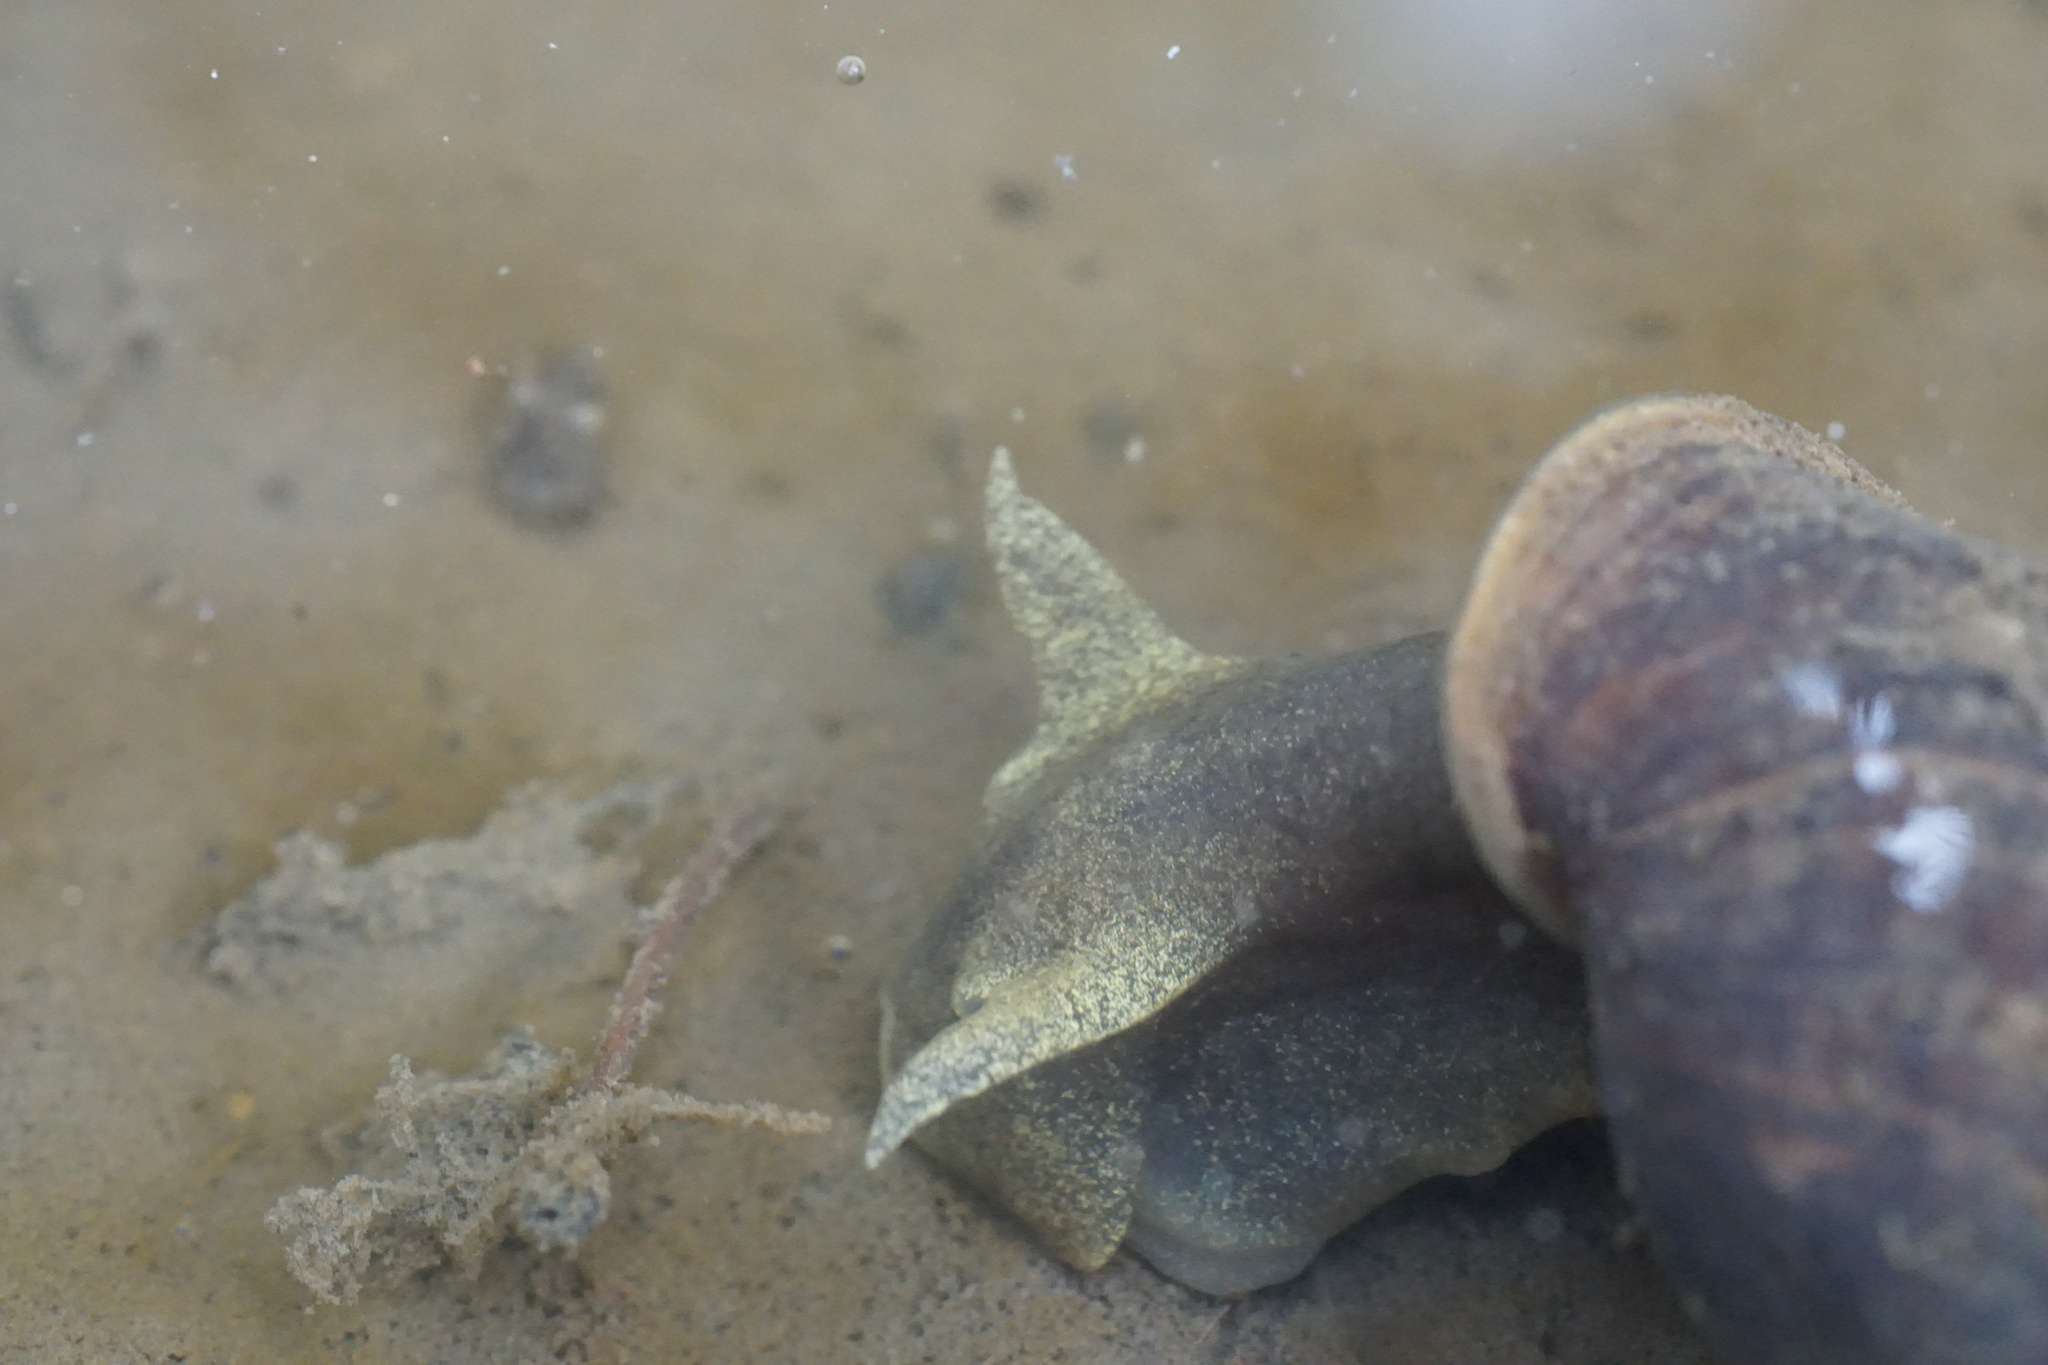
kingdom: Animalia
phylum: Mollusca
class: Gastropoda
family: Lymnaeidae
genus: Lymnaea
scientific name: Lymnaea stagnalis
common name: Great pond snail
